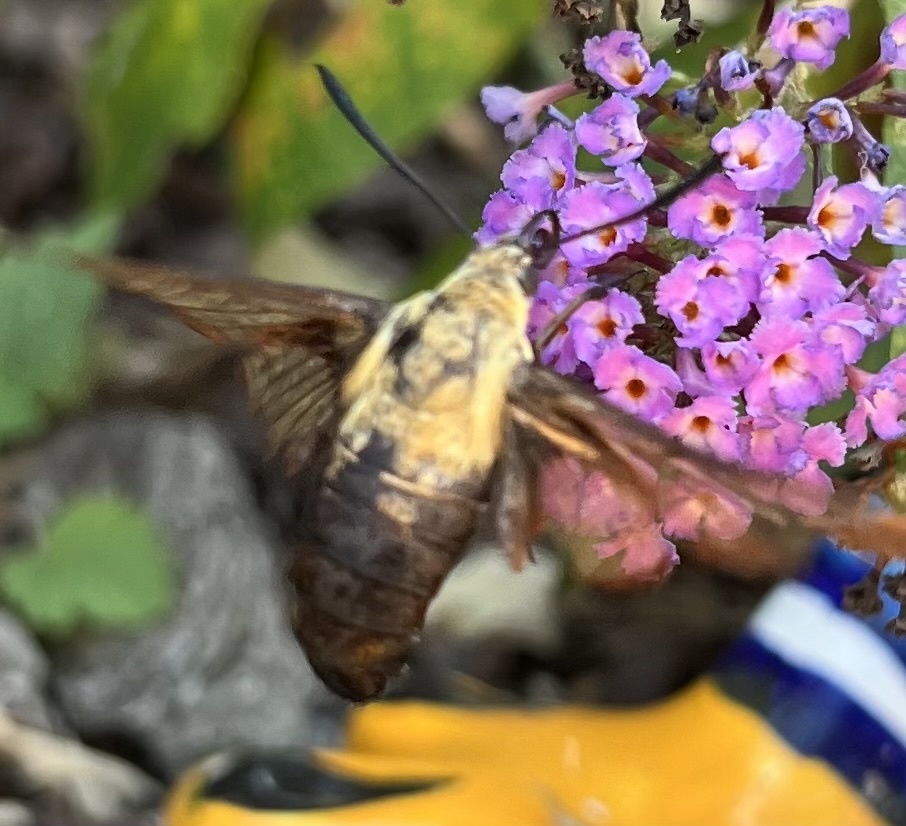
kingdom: Animalia
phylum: Arthropoda
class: Insecta
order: Lepidoptera
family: Sphingidae
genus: Hemaris
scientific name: Hemaris diffinis
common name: Bumblebee moth
